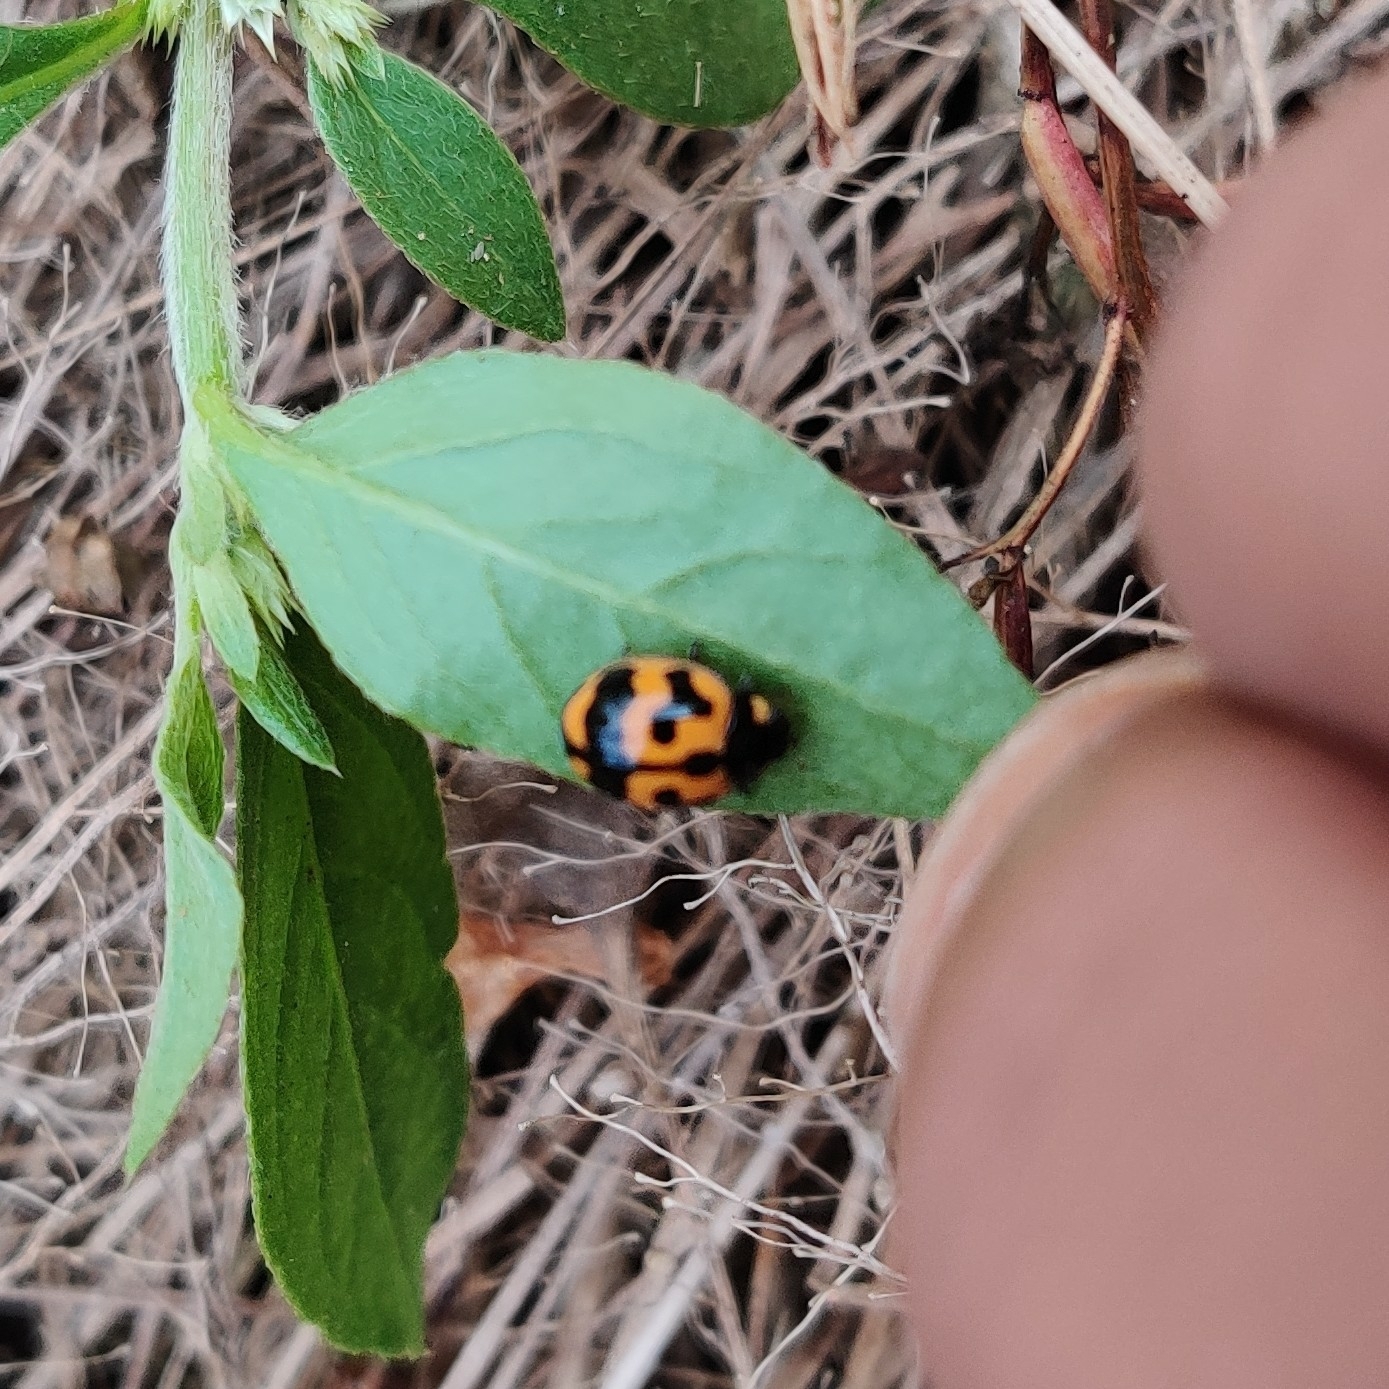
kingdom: Animalia
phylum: Arthropoda
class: Insecta
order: Coleoptera
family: Coccinellidae
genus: Coccinella
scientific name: Coccinella transversalis
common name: Transverse lady beetle
